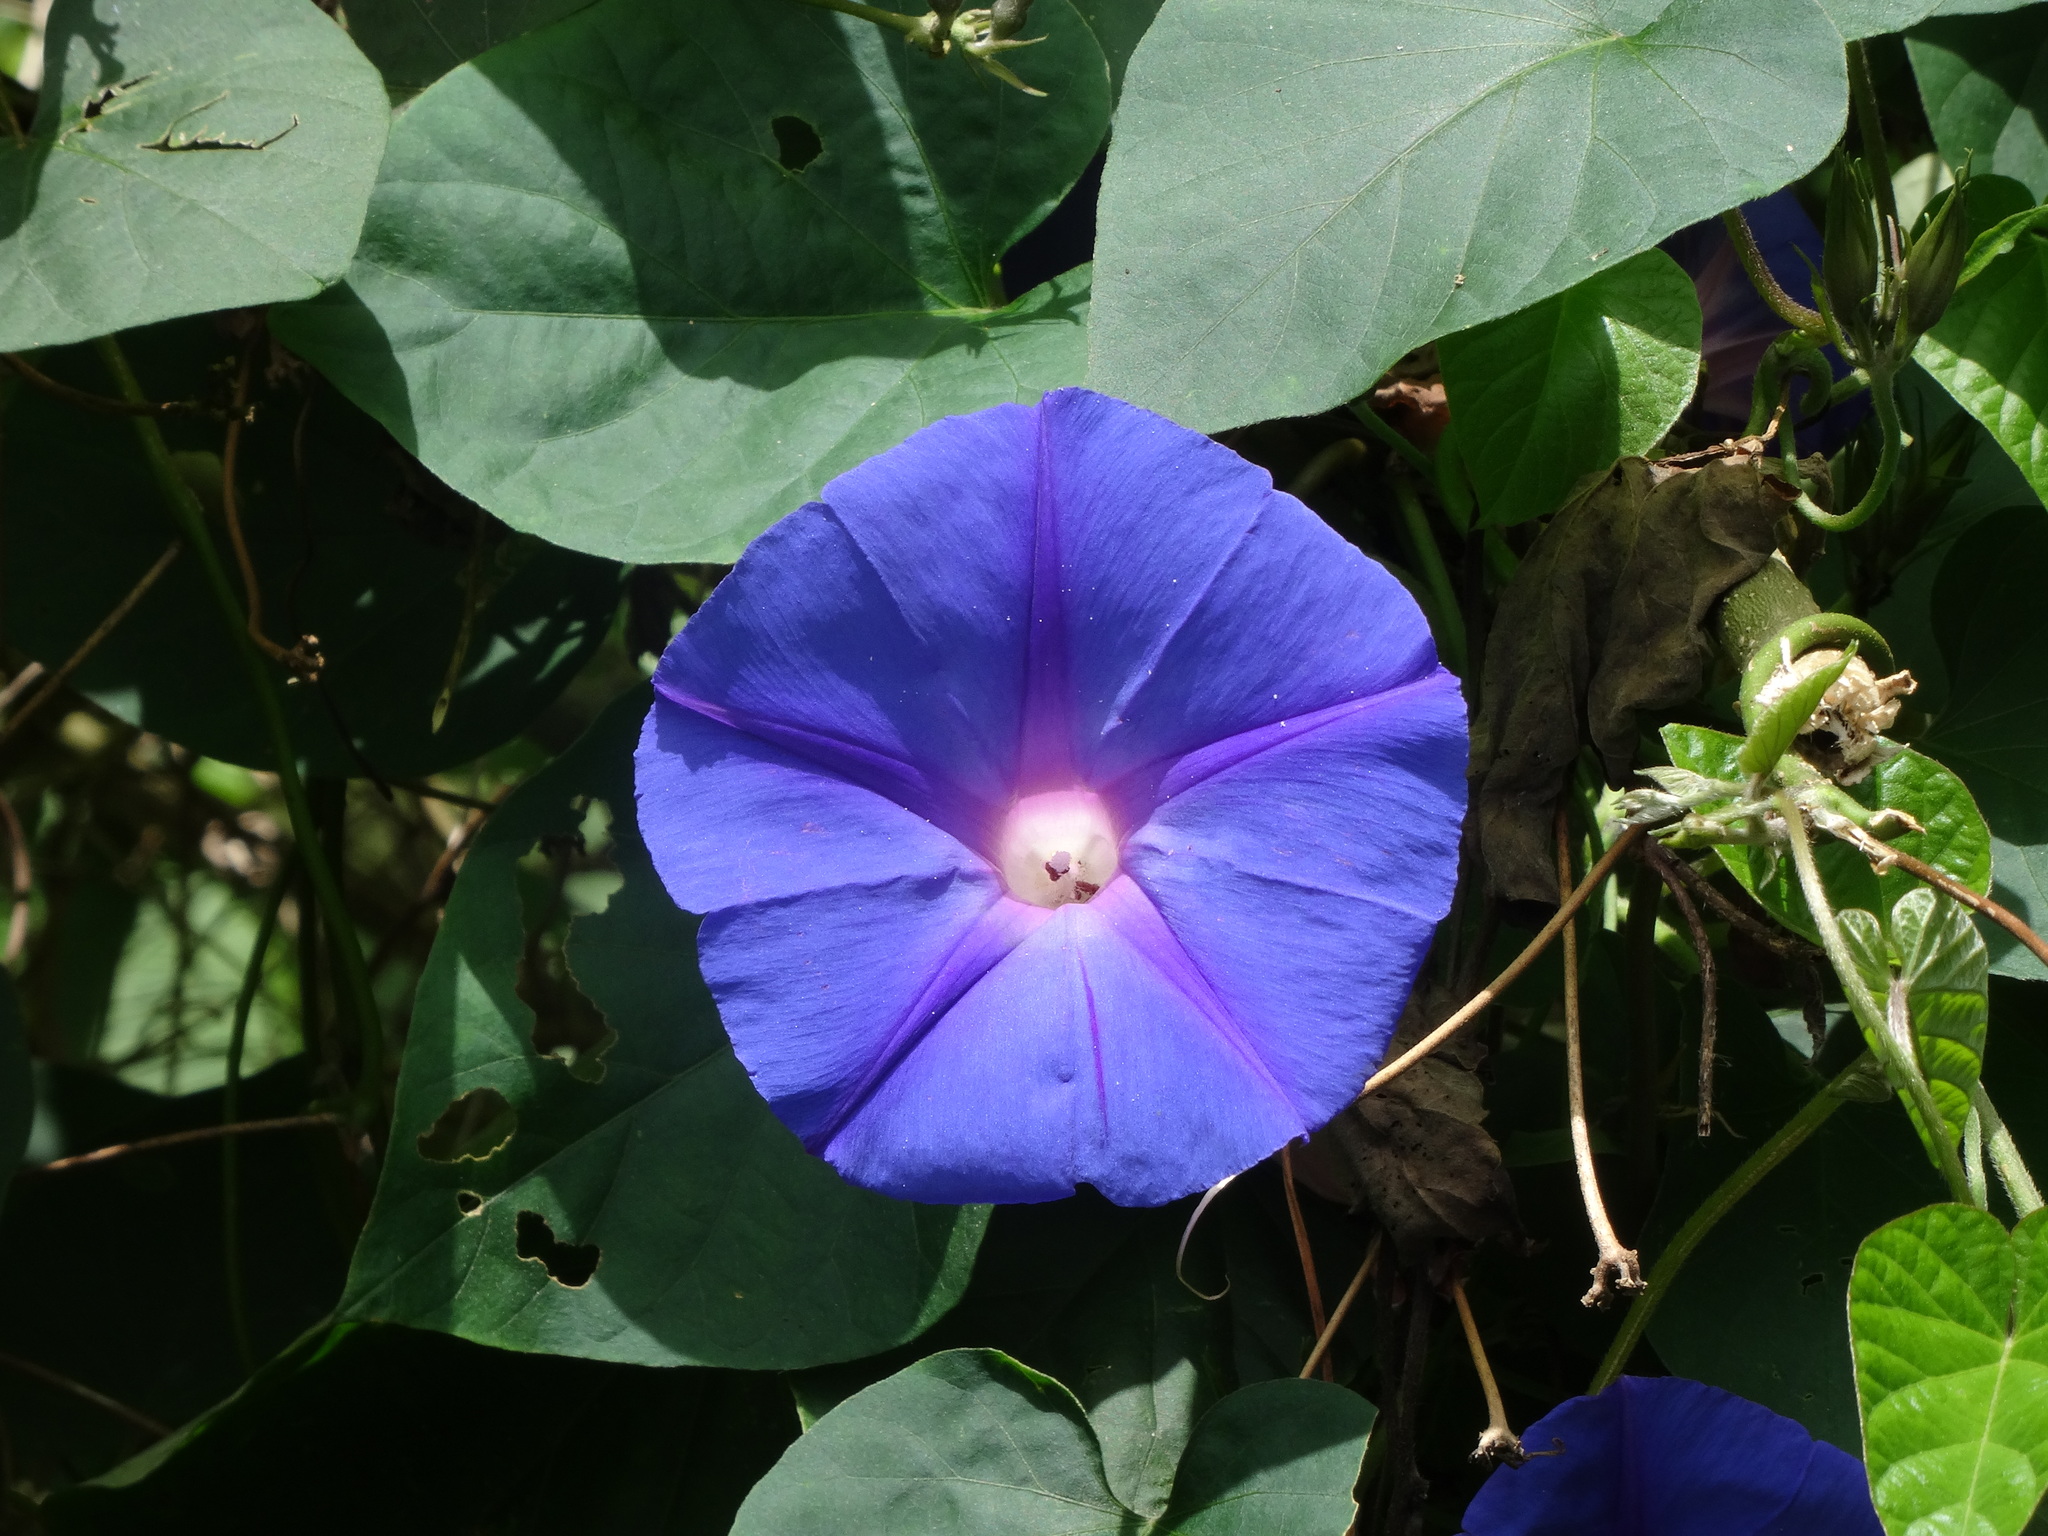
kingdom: Plantae
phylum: Tracheophyta
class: Magnoliopsida
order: Solanales
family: Convolvulaceae
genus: Ipomoea
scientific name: Ipomoea indica
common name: Blue dawnflower
